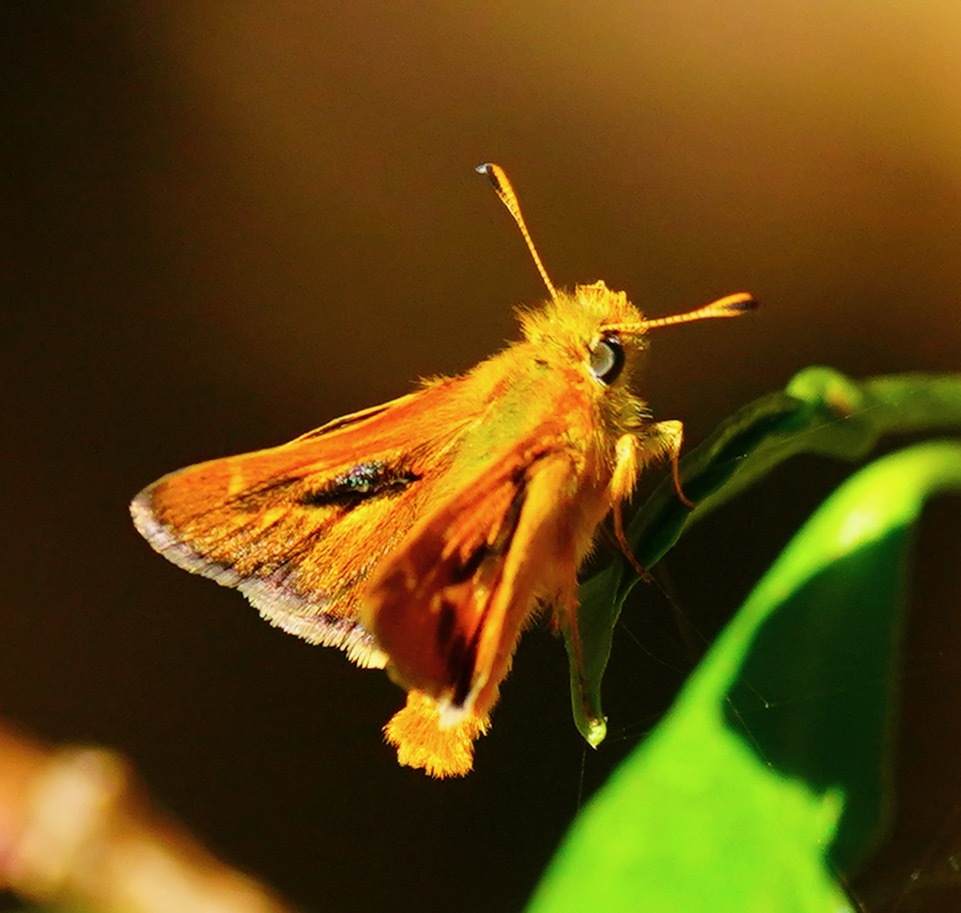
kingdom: Animalia
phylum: Arthropoda
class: Insecta
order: Lepidoptera
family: Hesperiidae
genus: Ochlodes
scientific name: Ochlodes agricola
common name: Rural skipper
